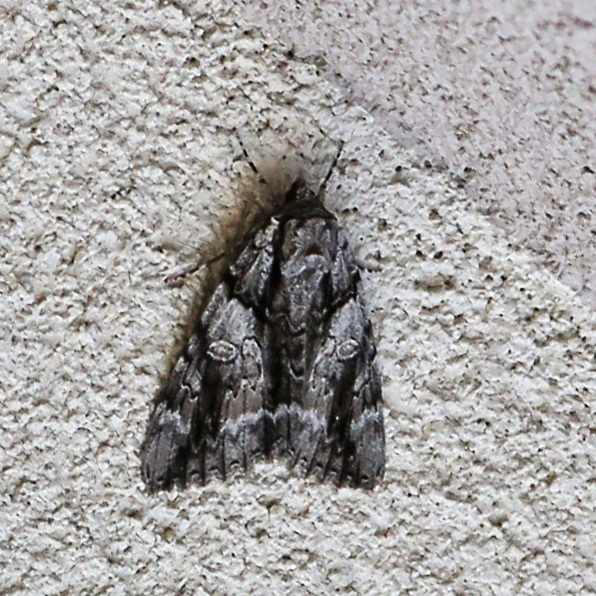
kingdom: Animalia
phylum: Arthropoda
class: Insecta
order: Lepidoptera
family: Erebidae
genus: Catocala
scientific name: Catocala vidua
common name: The widow
